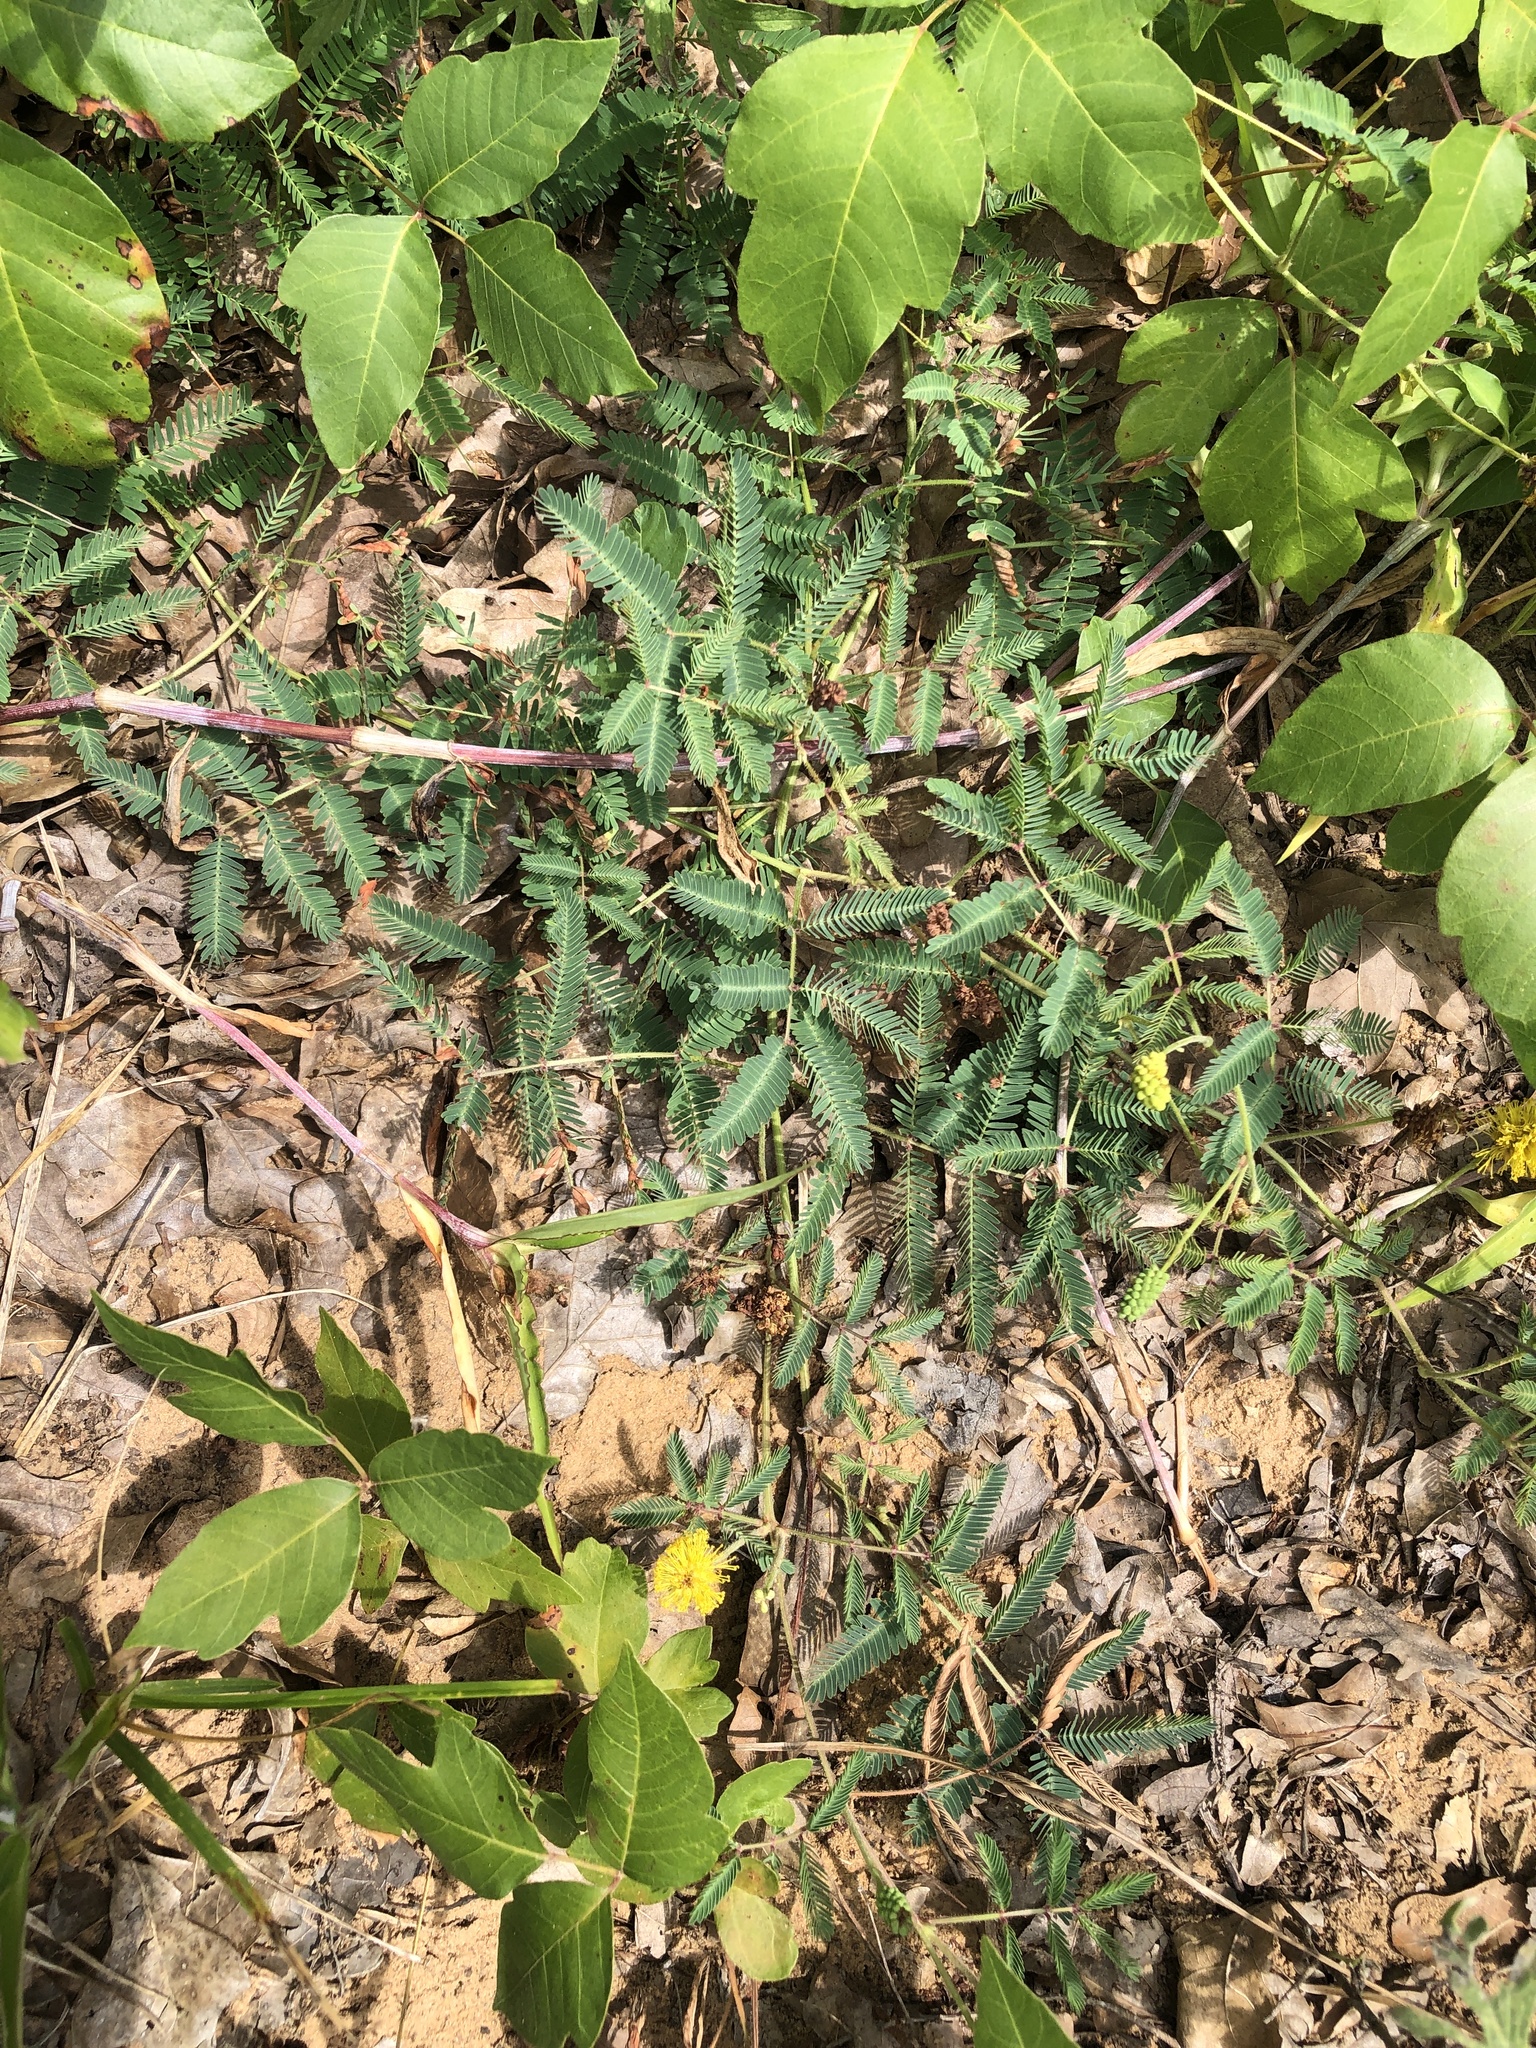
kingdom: Plantae
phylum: Tracheophyta
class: Magnoliopsida
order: Fabales
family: Fabaceae
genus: Neptunia
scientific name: Neptunia lutea
